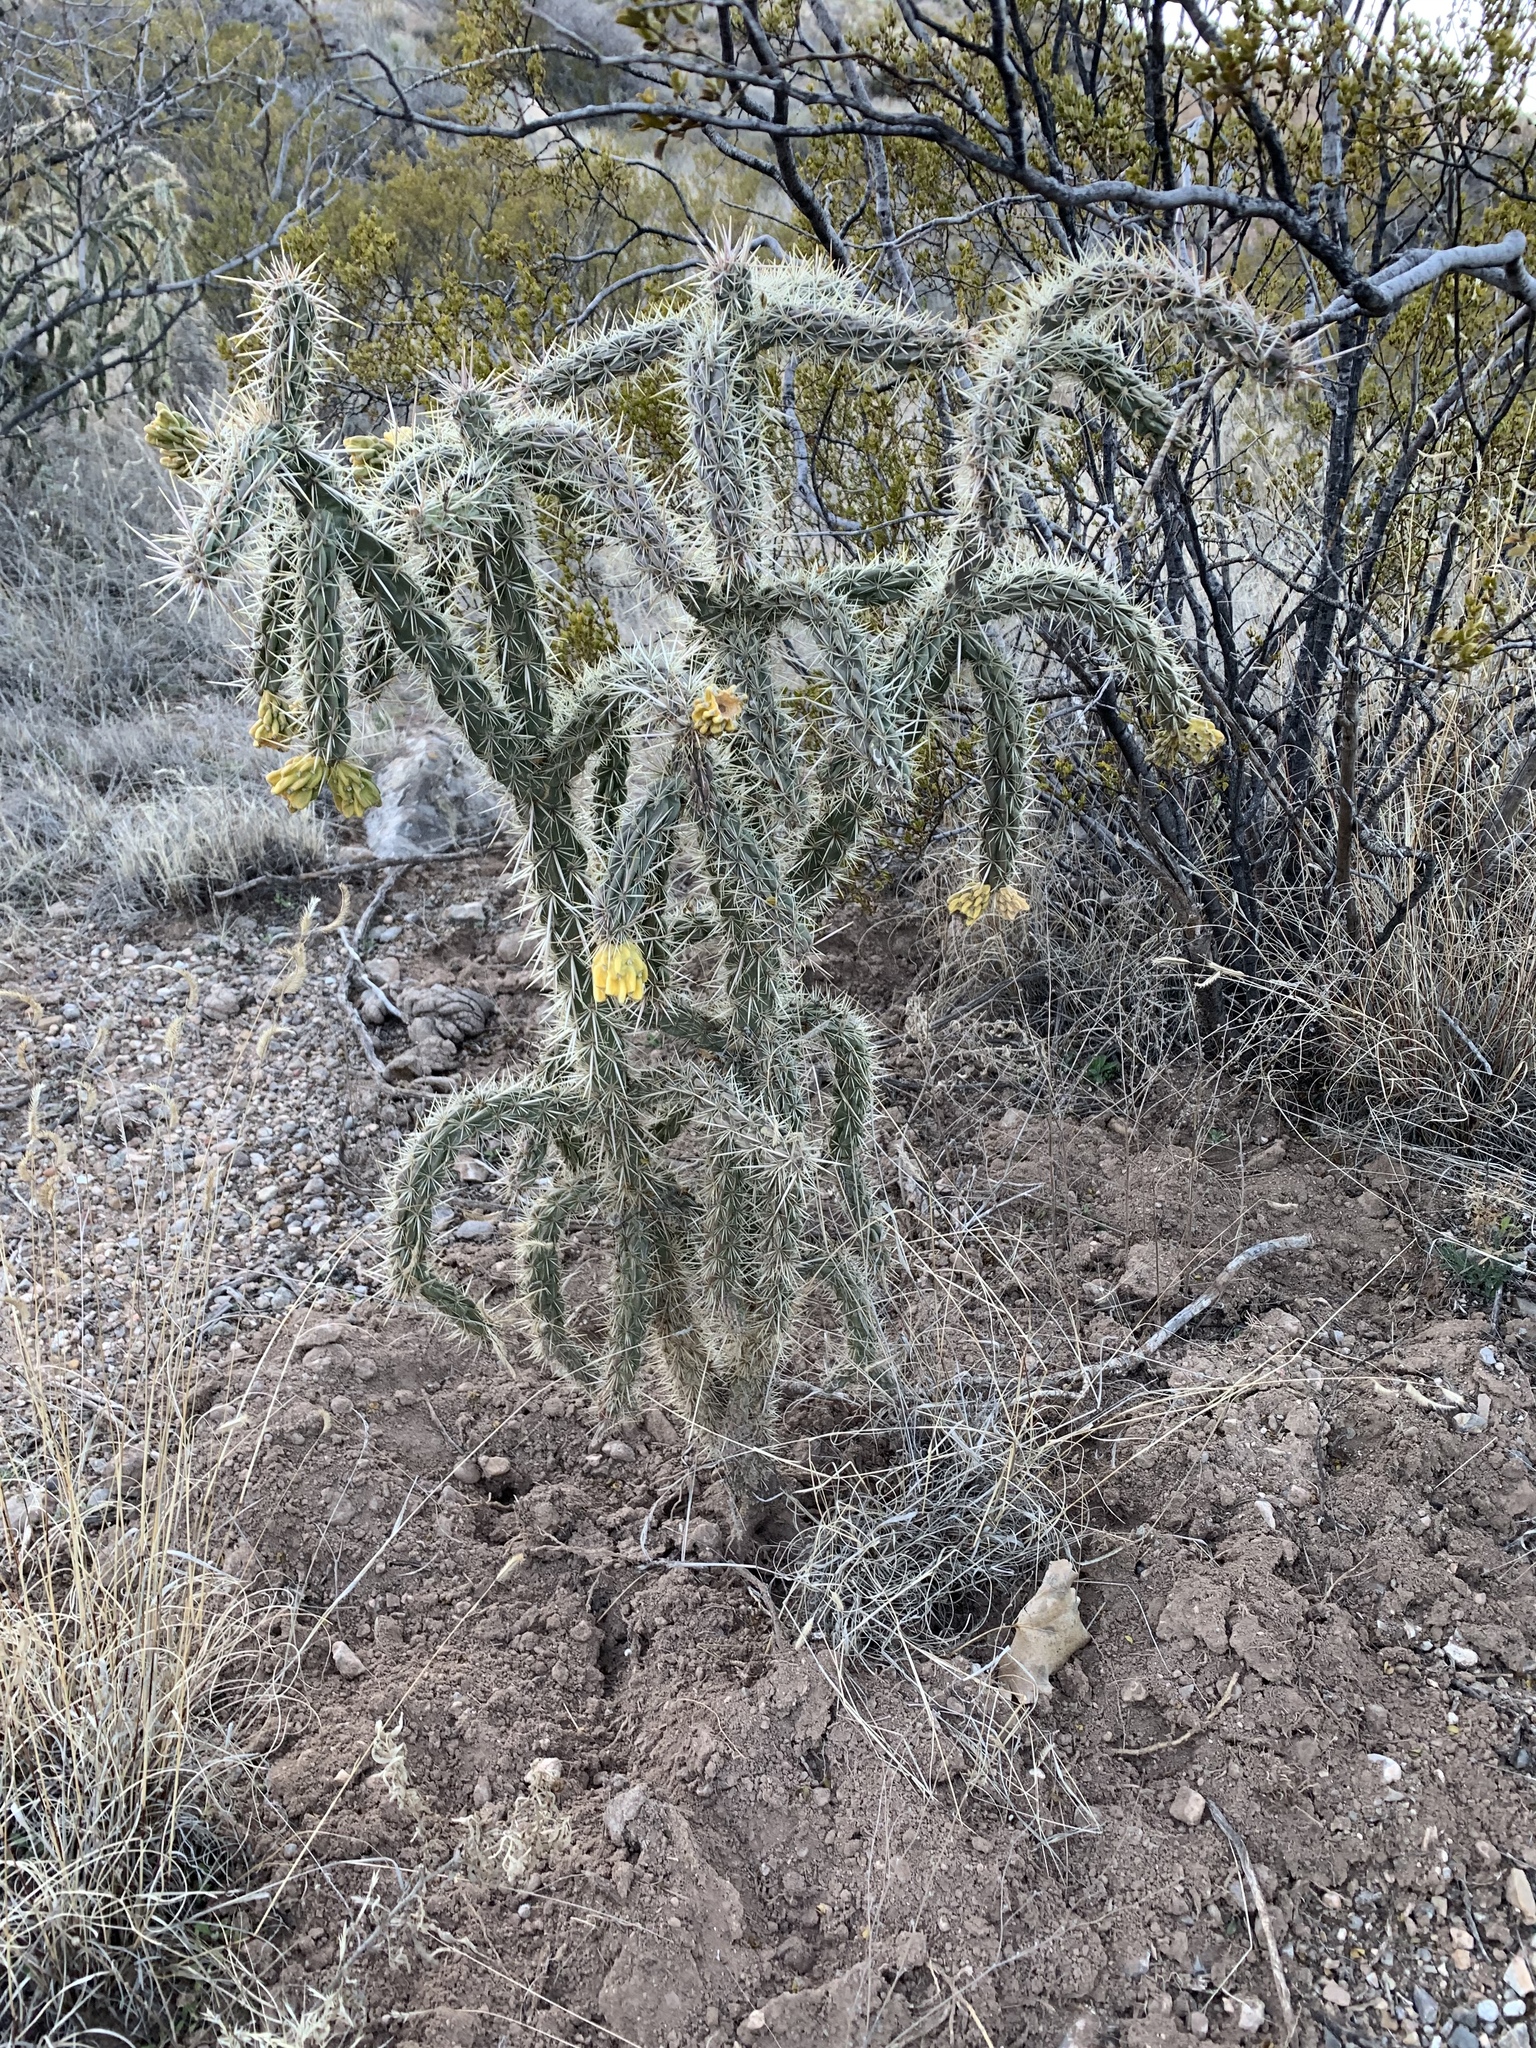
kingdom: Plantae
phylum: Tracheophyta
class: Magnoliopsida
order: Caryophyllales
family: Cactaceae
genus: Cylindropuntia
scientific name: Cylindropuntia imbricata
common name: Candelabrum cactus
